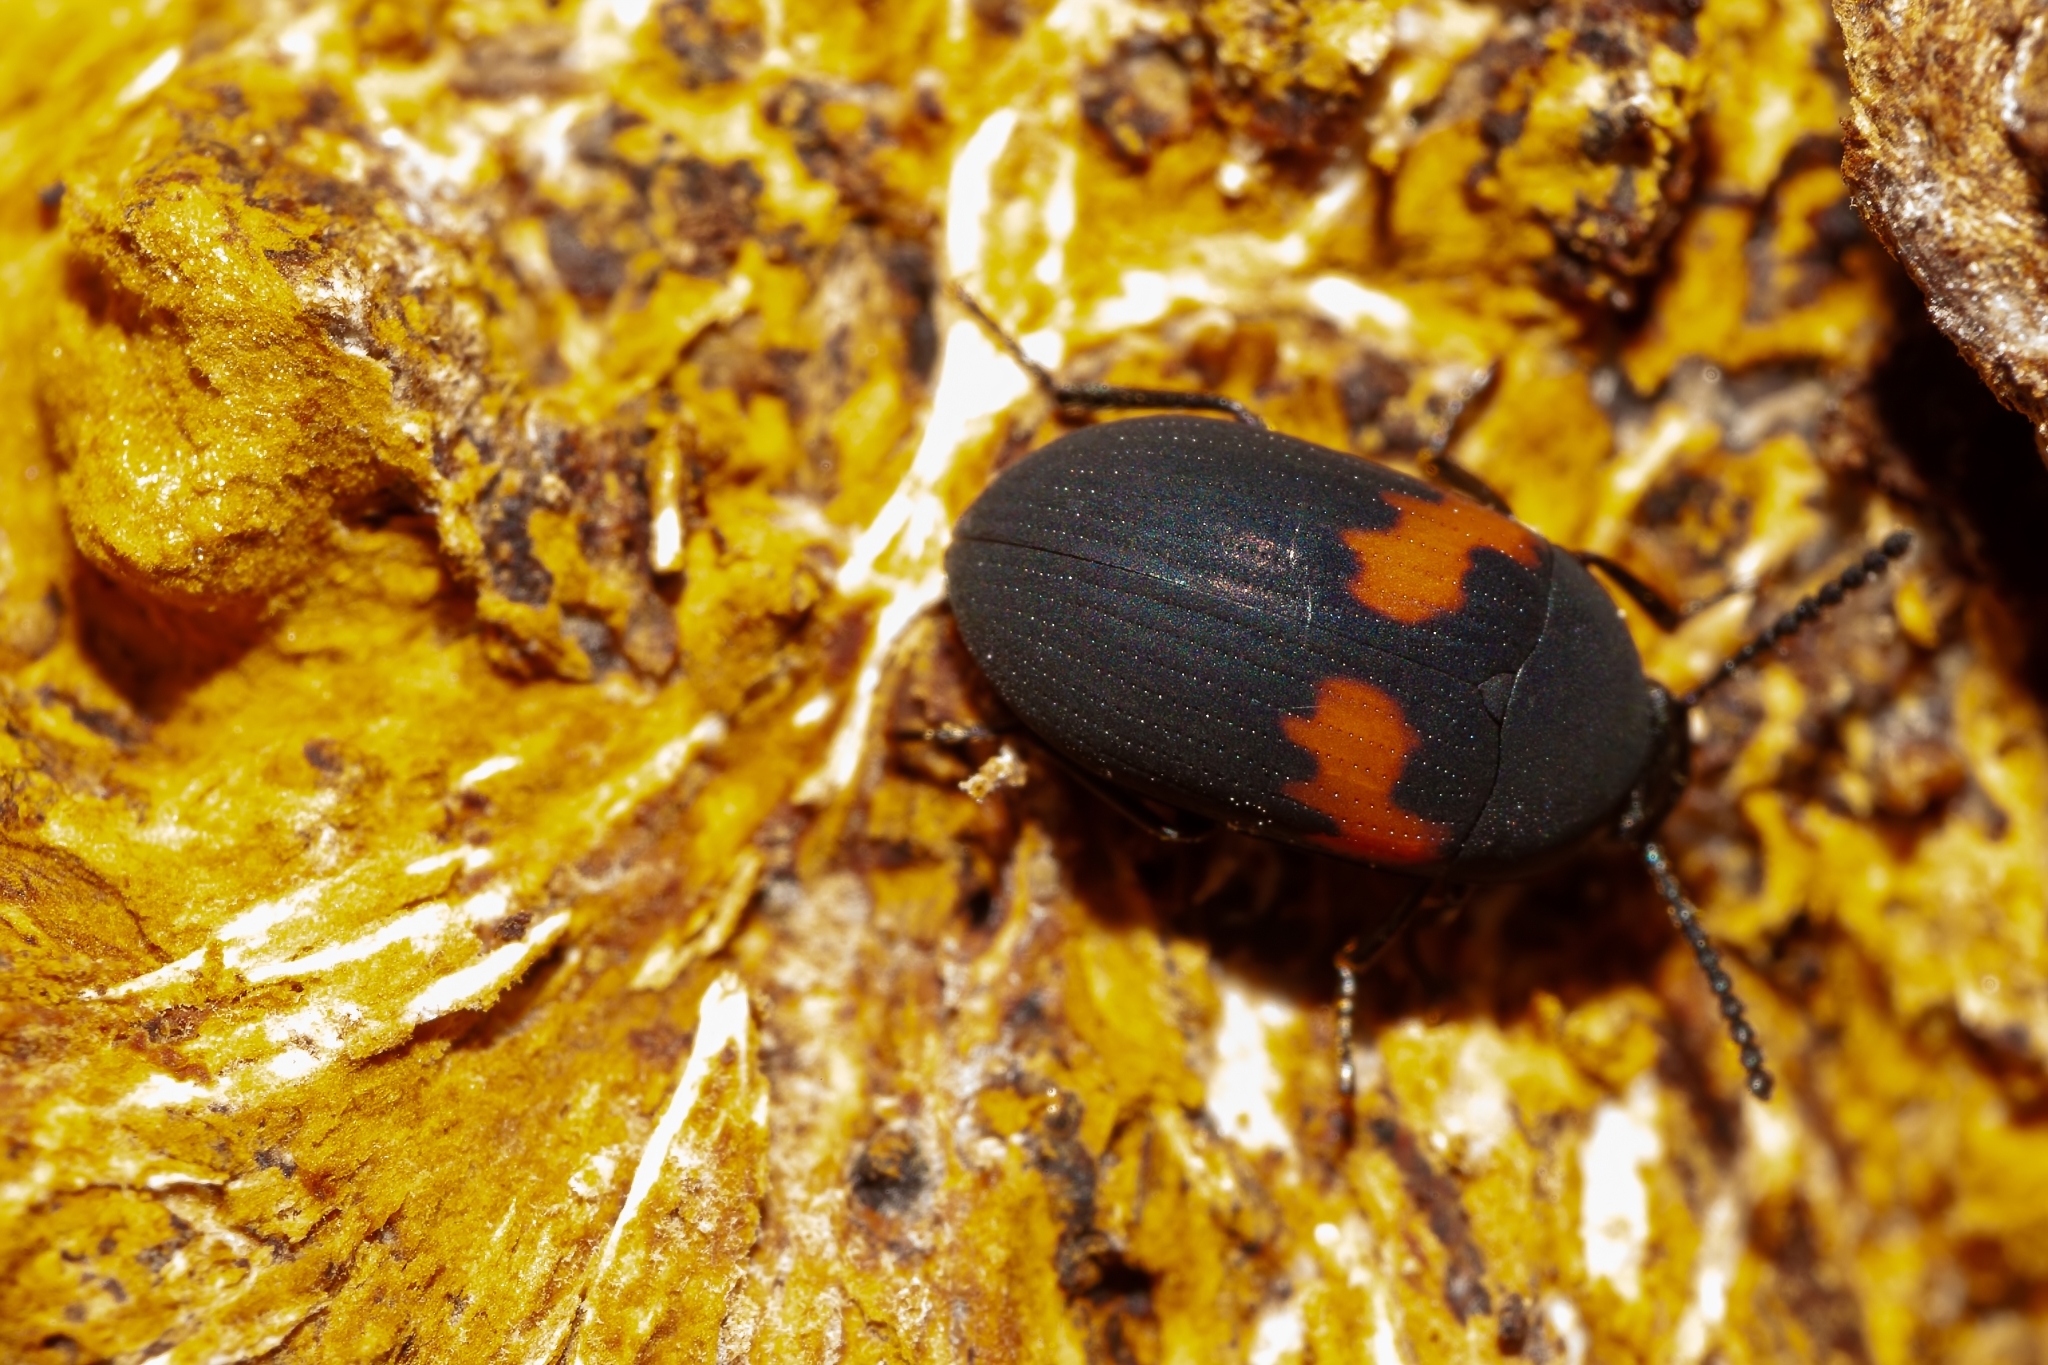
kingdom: Animalia
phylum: Arthropoda
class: Insecta
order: Coleoptera
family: Tenebrionidae
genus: Platydema
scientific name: Platydema elliptica
